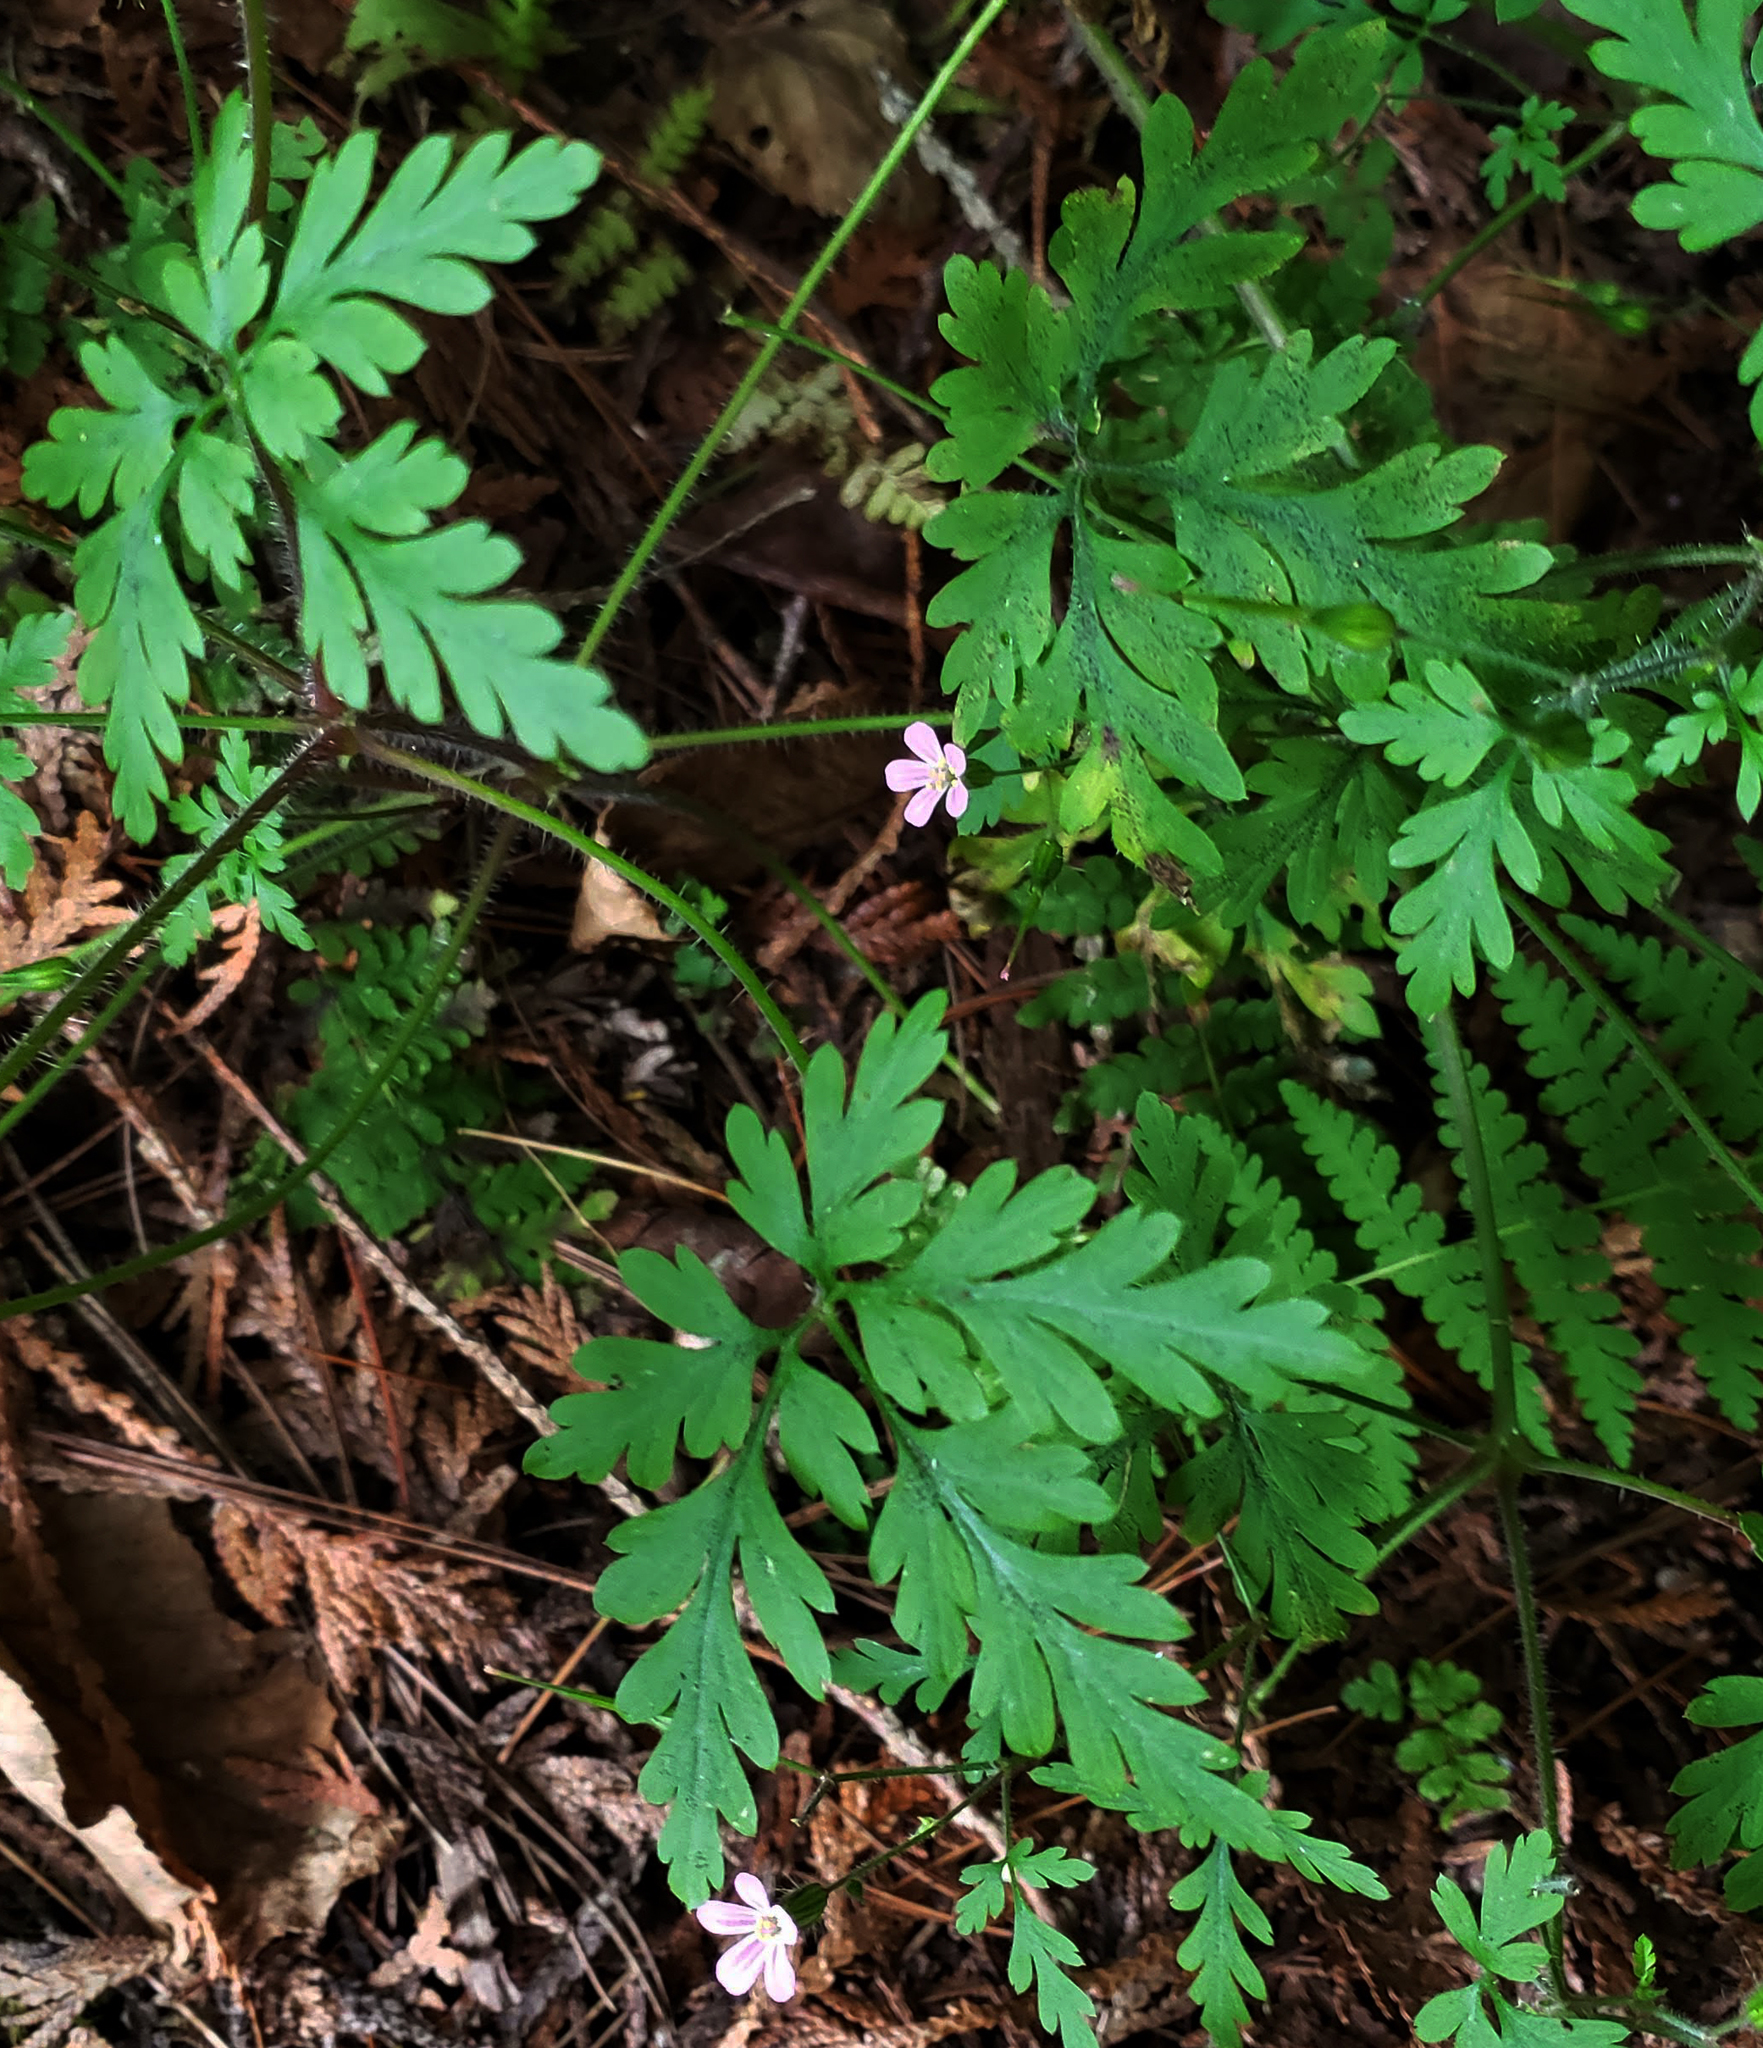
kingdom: Plantae
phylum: Tracheophyta
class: Magnoliopsida
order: Geraniales
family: Geraniaceae
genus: Geranium
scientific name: Geranium robertianum
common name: Herb-robert
